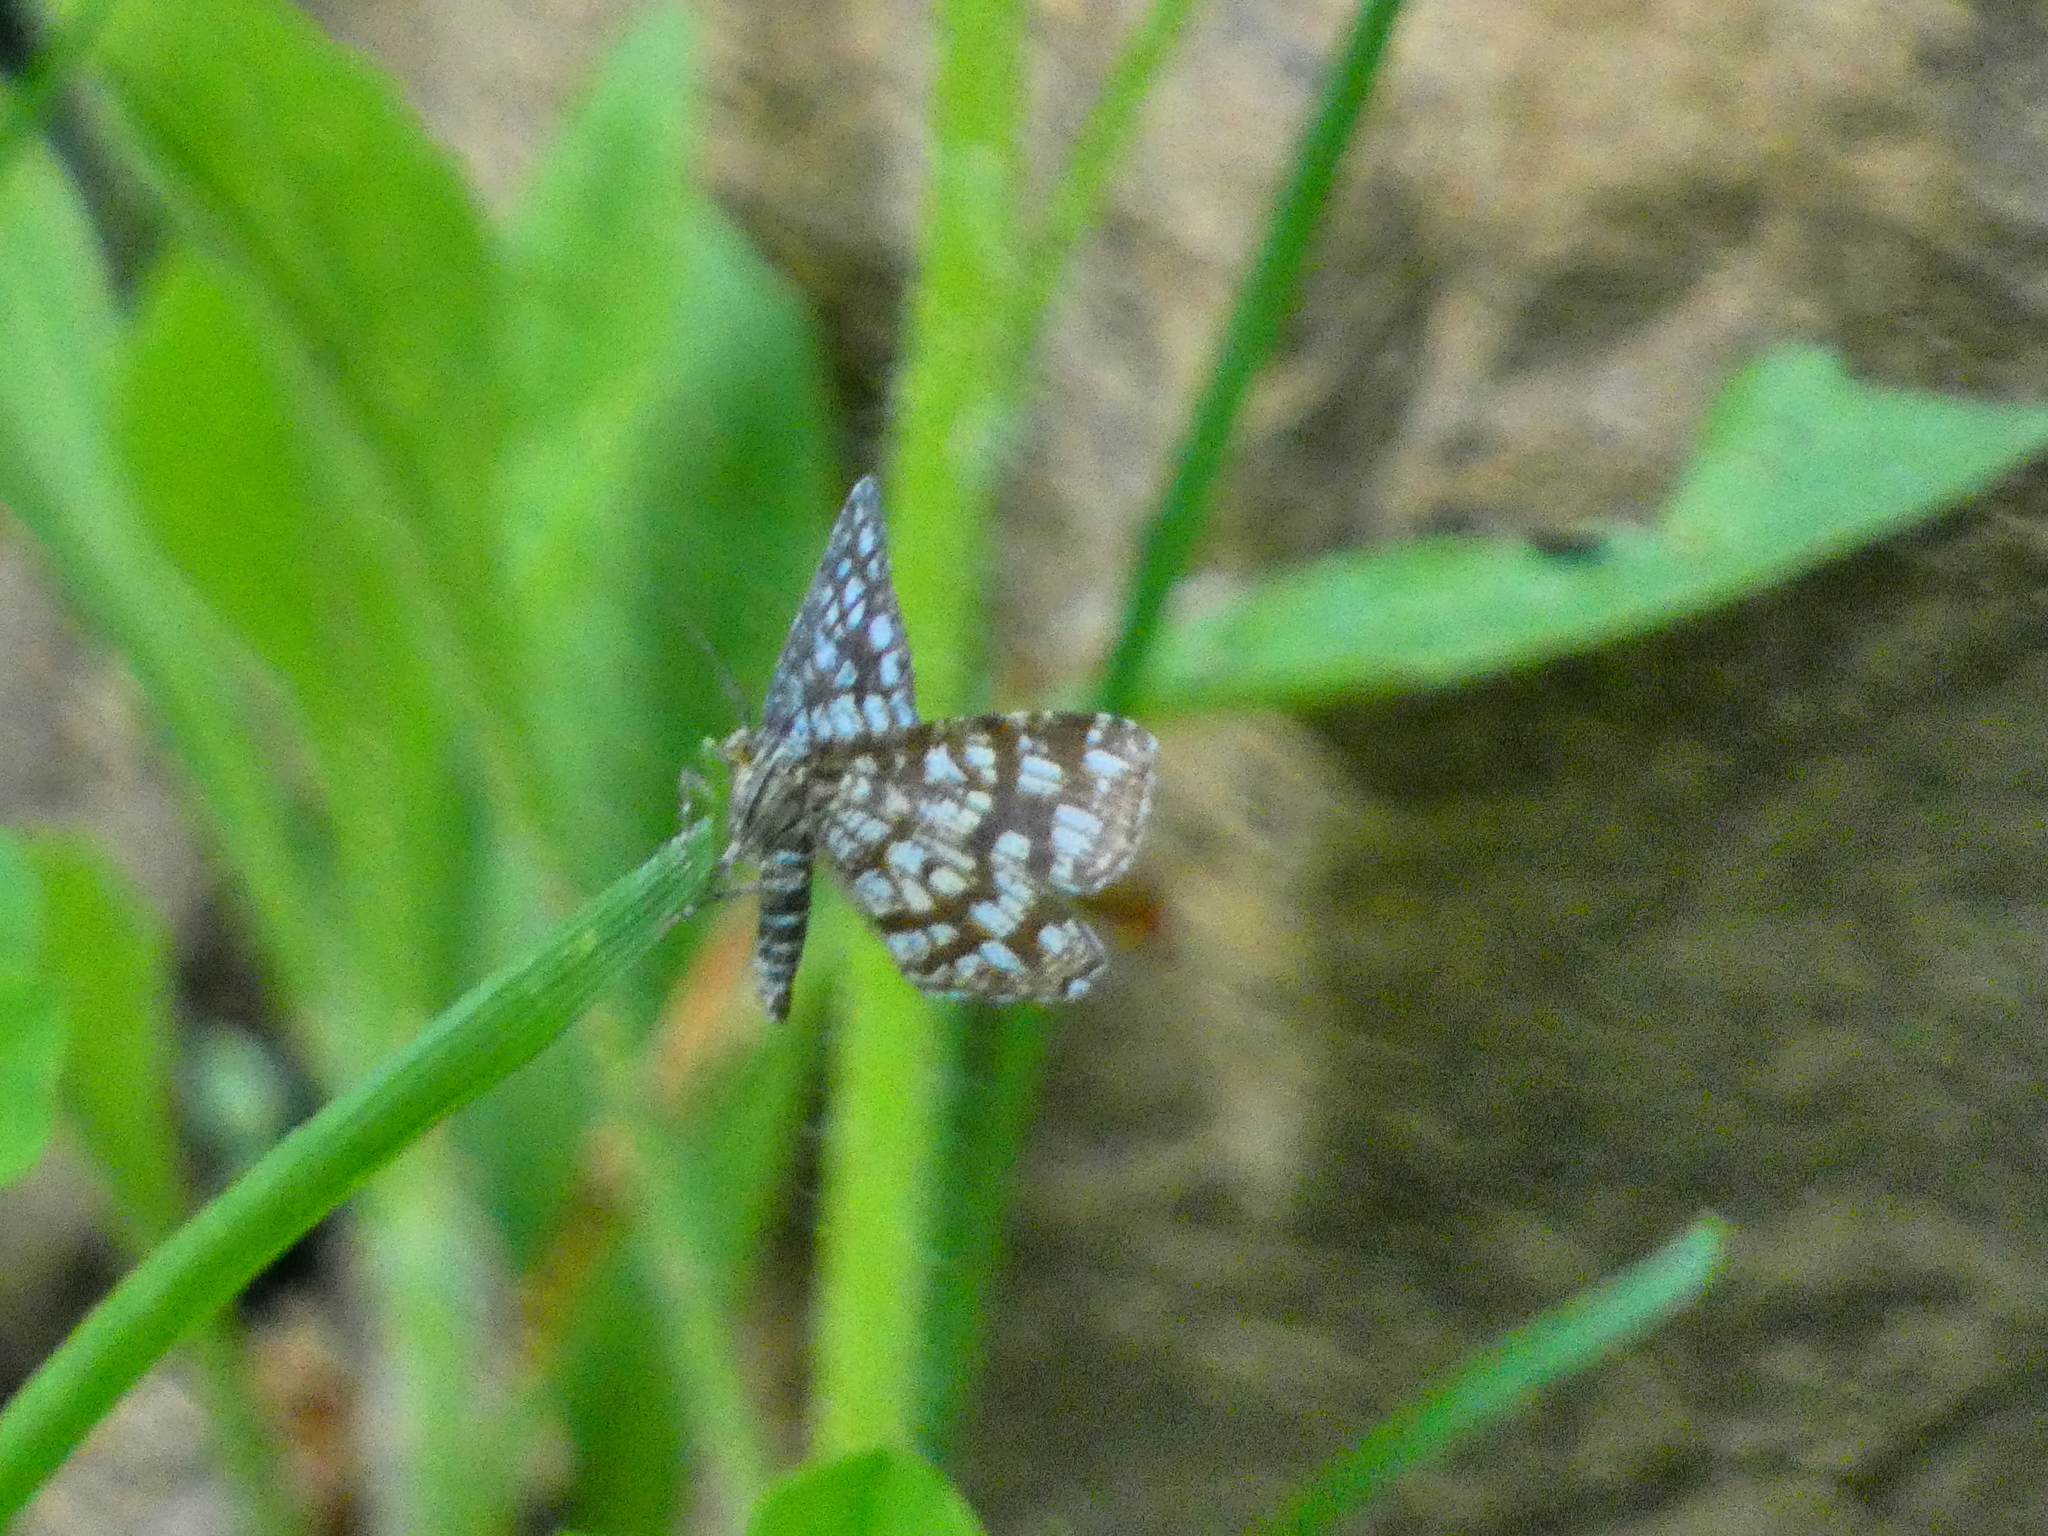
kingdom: Animalia
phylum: Arthropoda
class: Insecta
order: Lepidoptera
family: Geometridae
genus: Chiasmia
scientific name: Chiasmia clathrata
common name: Latticed heath
